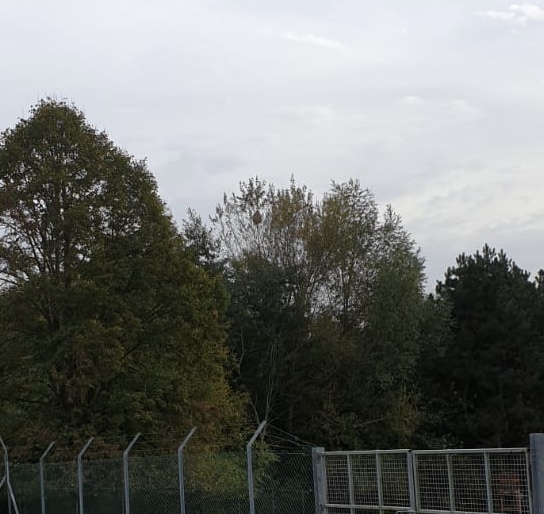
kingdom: Animalia
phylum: Arthropoda
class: Insecta
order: Hymenoptera
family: Vespidae
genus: Vespa
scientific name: Vespa velutina
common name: Asian hornet
